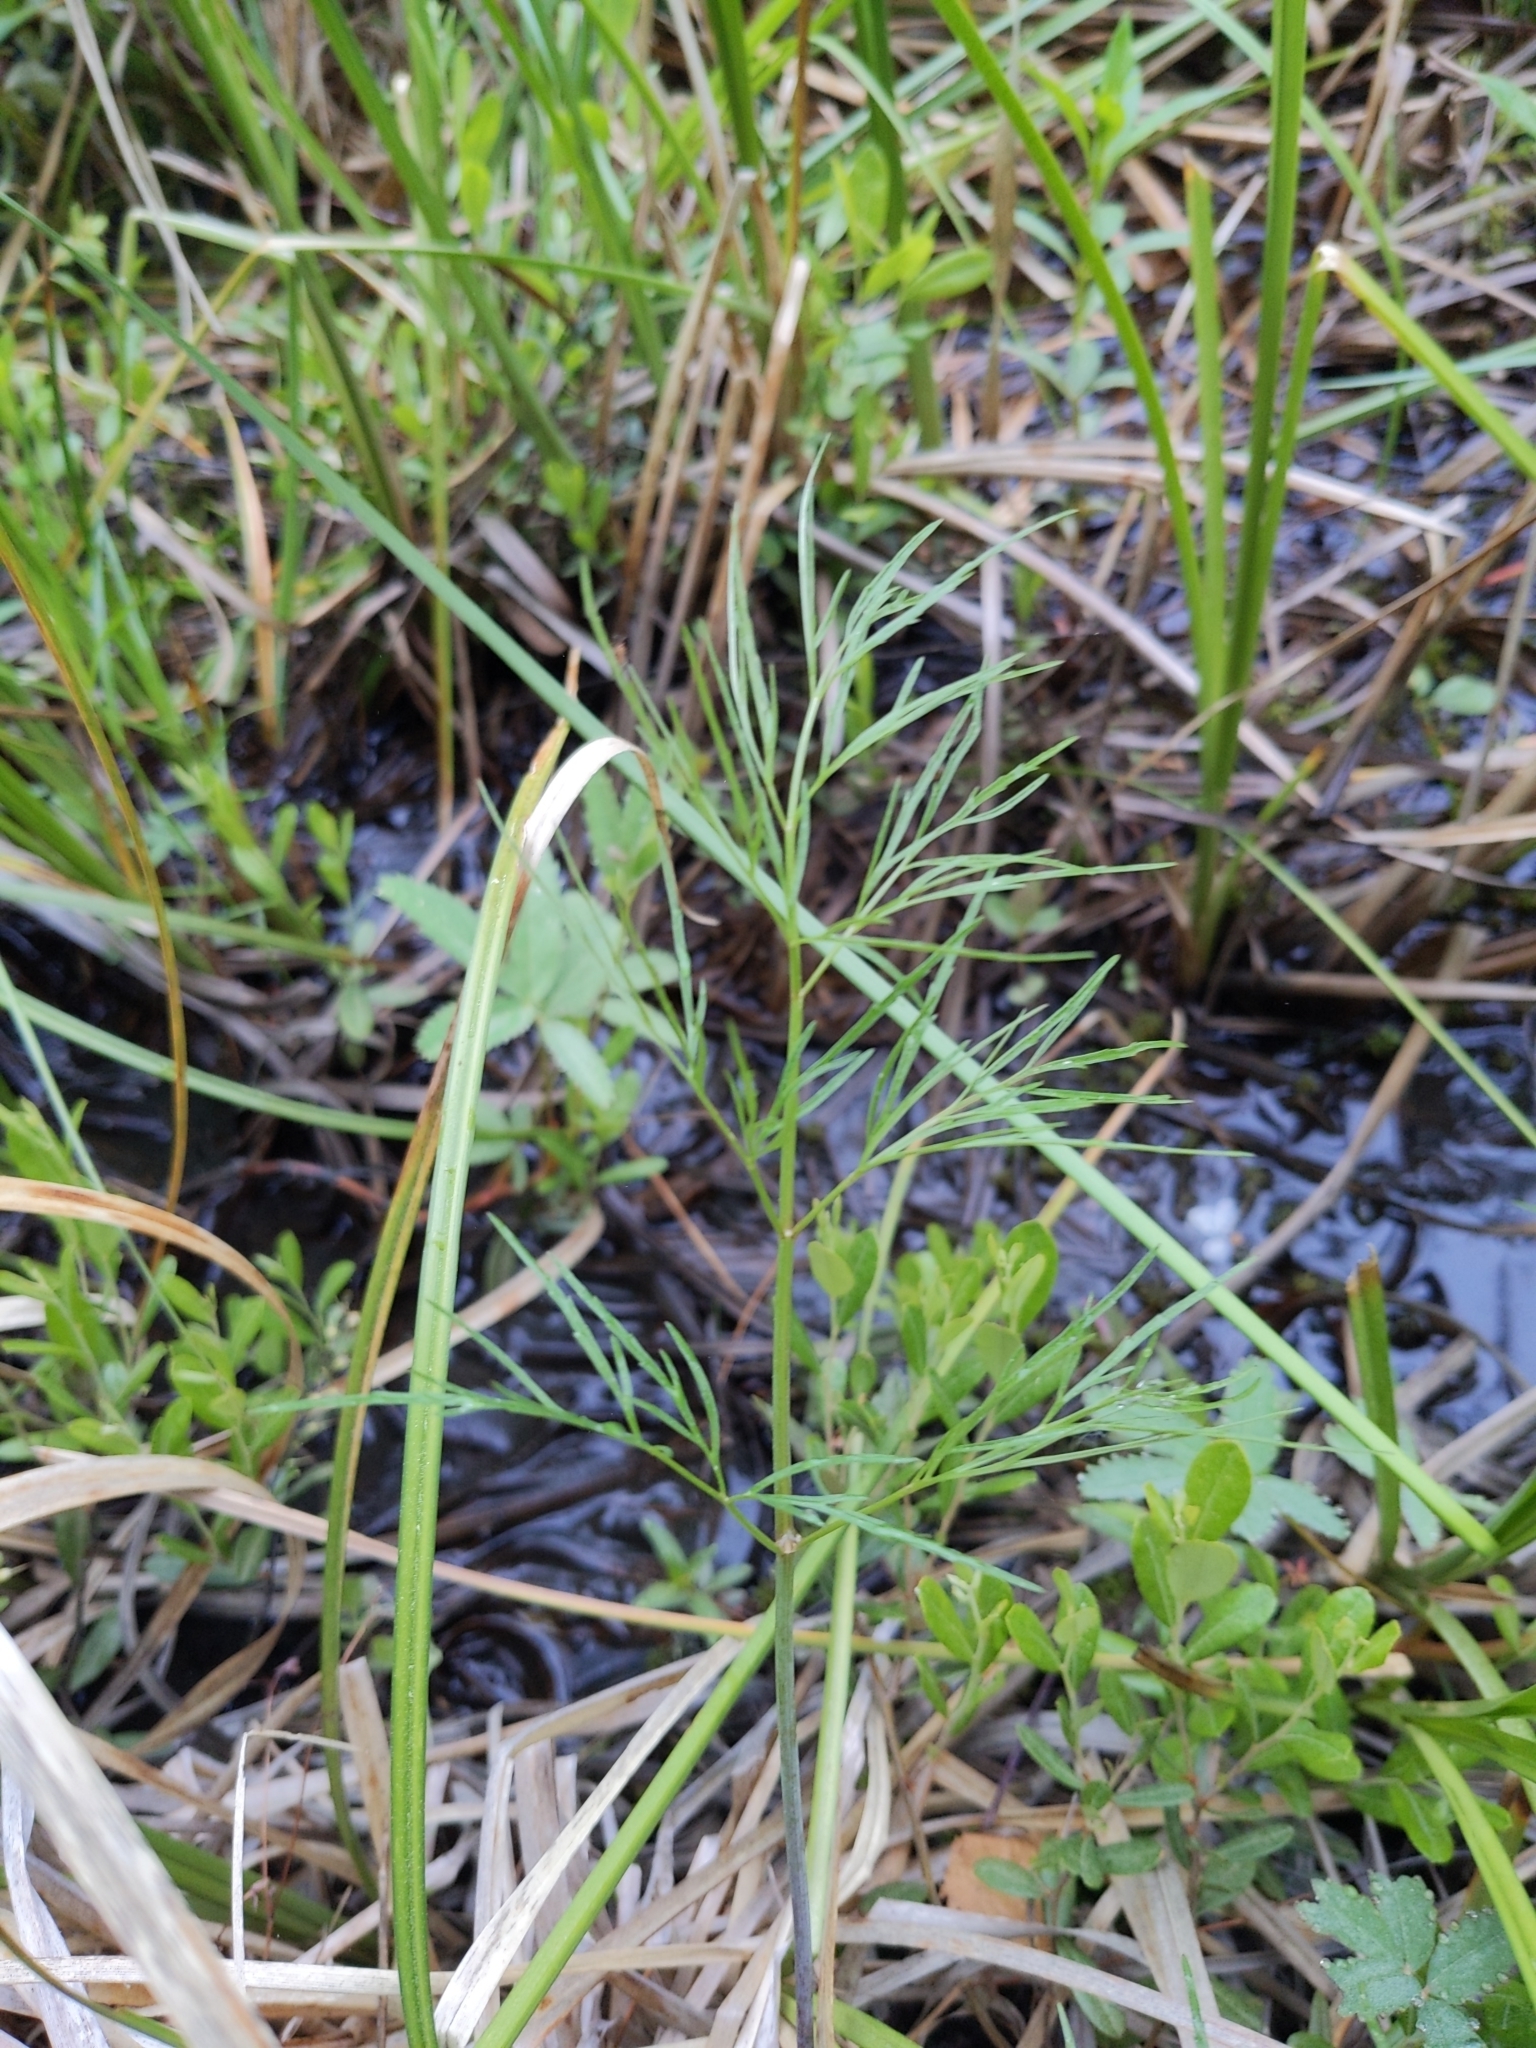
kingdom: Plantae
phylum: Tracheophyta
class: Magnoliopsida
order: Apiales
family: Apiaceae
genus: Cicuta
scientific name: Cicuta bulbifera
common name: Bulb-bearing water-hemlock
